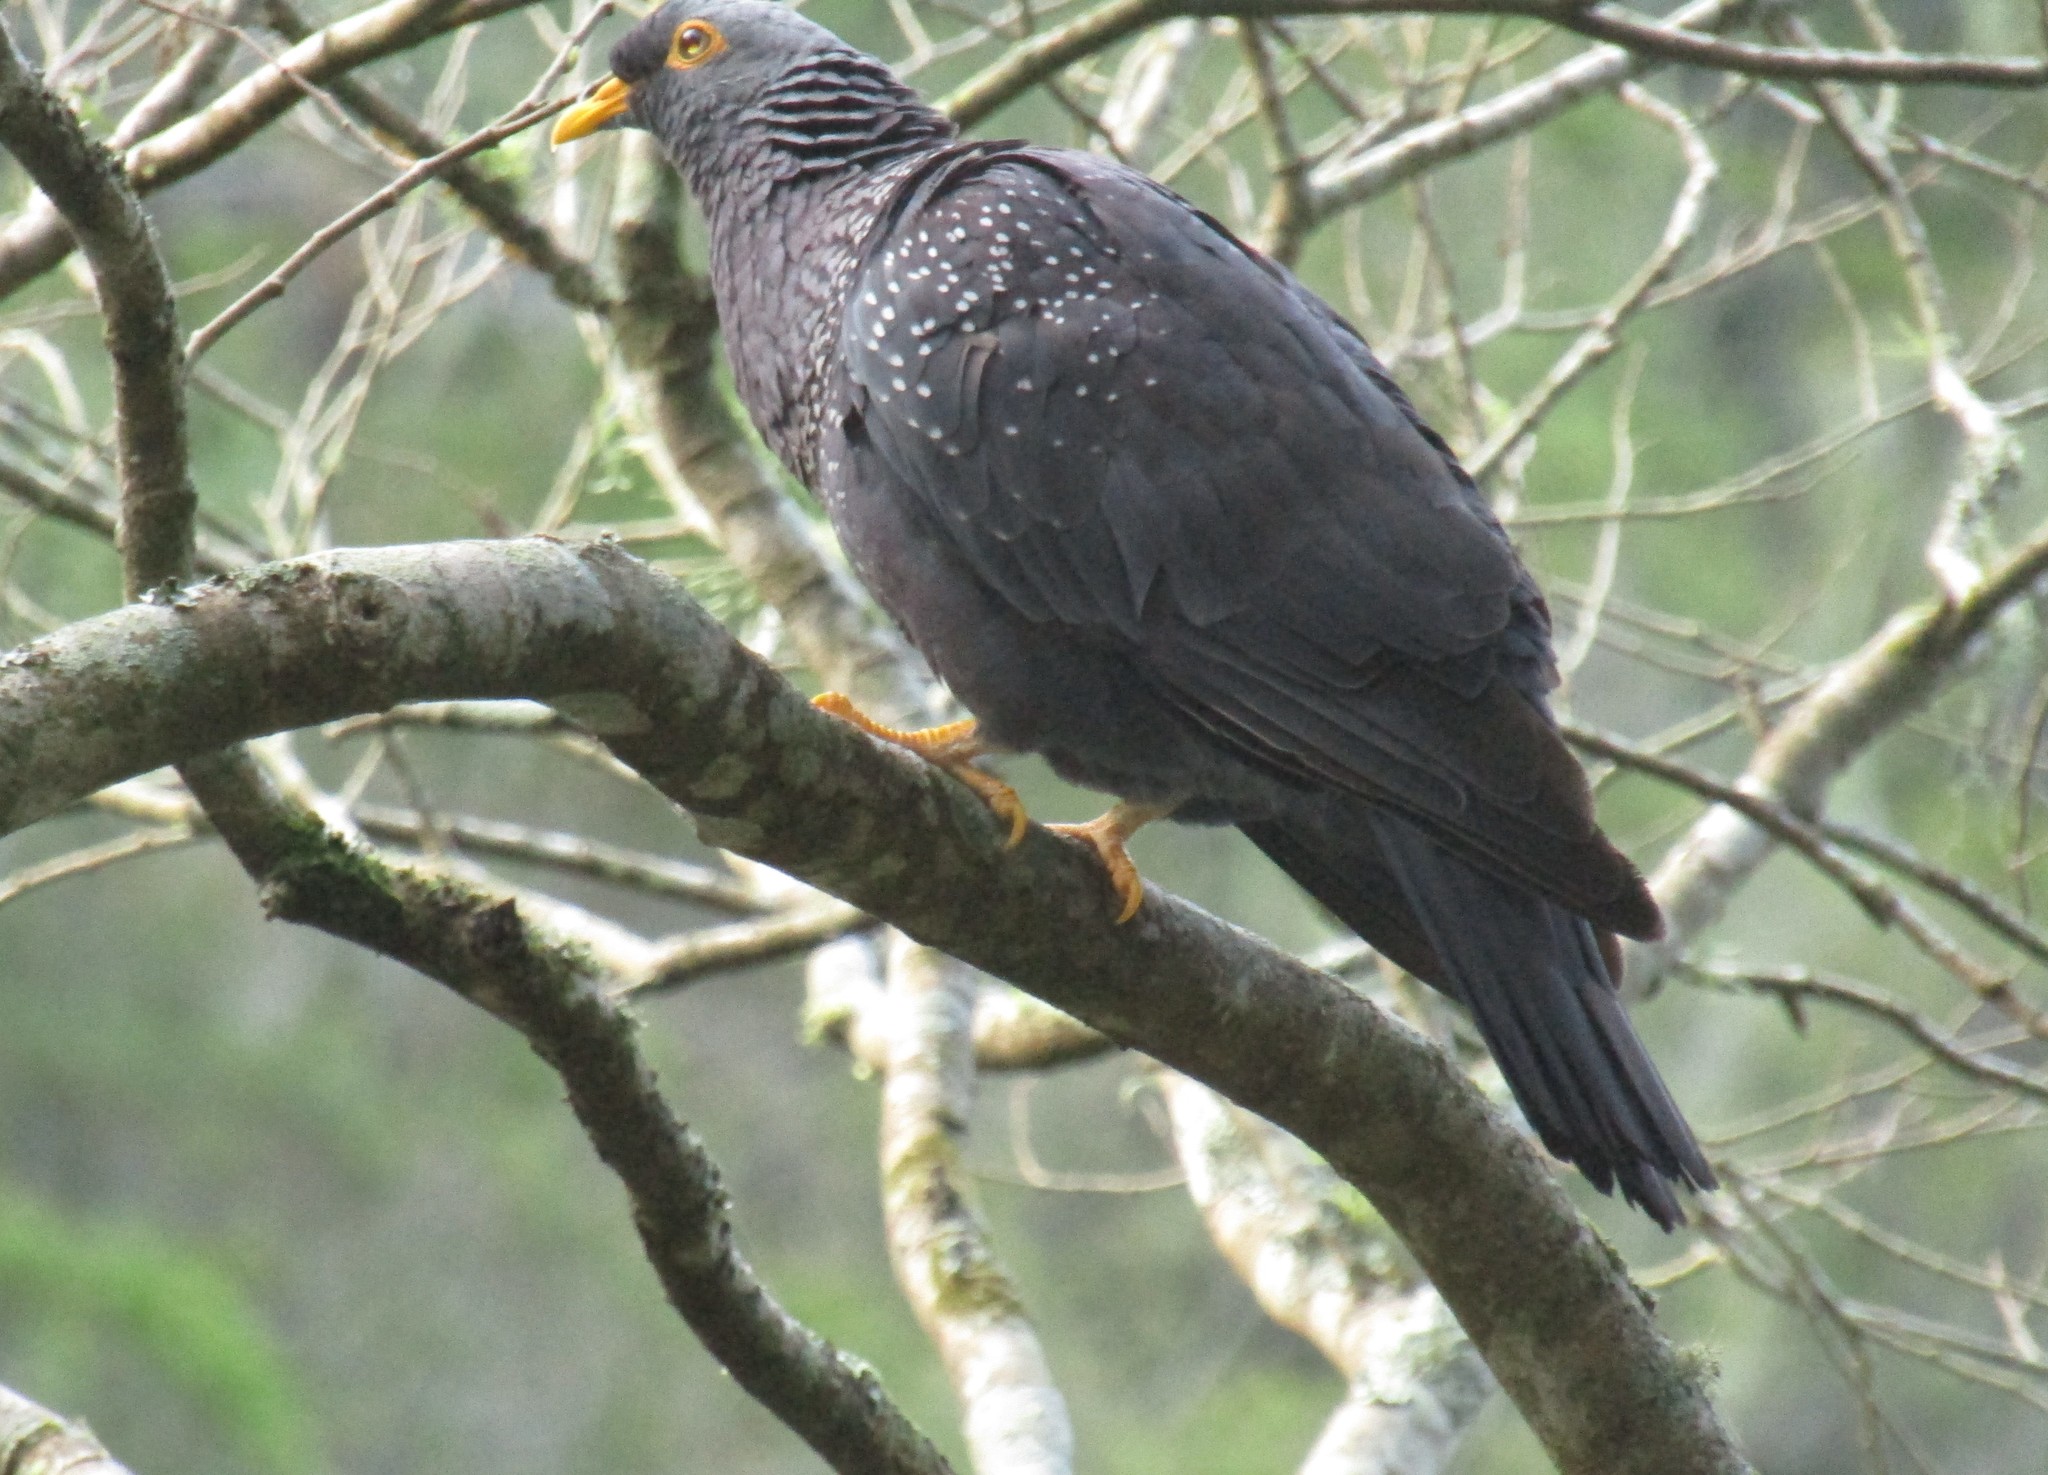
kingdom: Animalia
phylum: Chordata
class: Aves
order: Columbiformes
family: Columbidae
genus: Columba
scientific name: Columba arquatrix
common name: African olive pigeon
